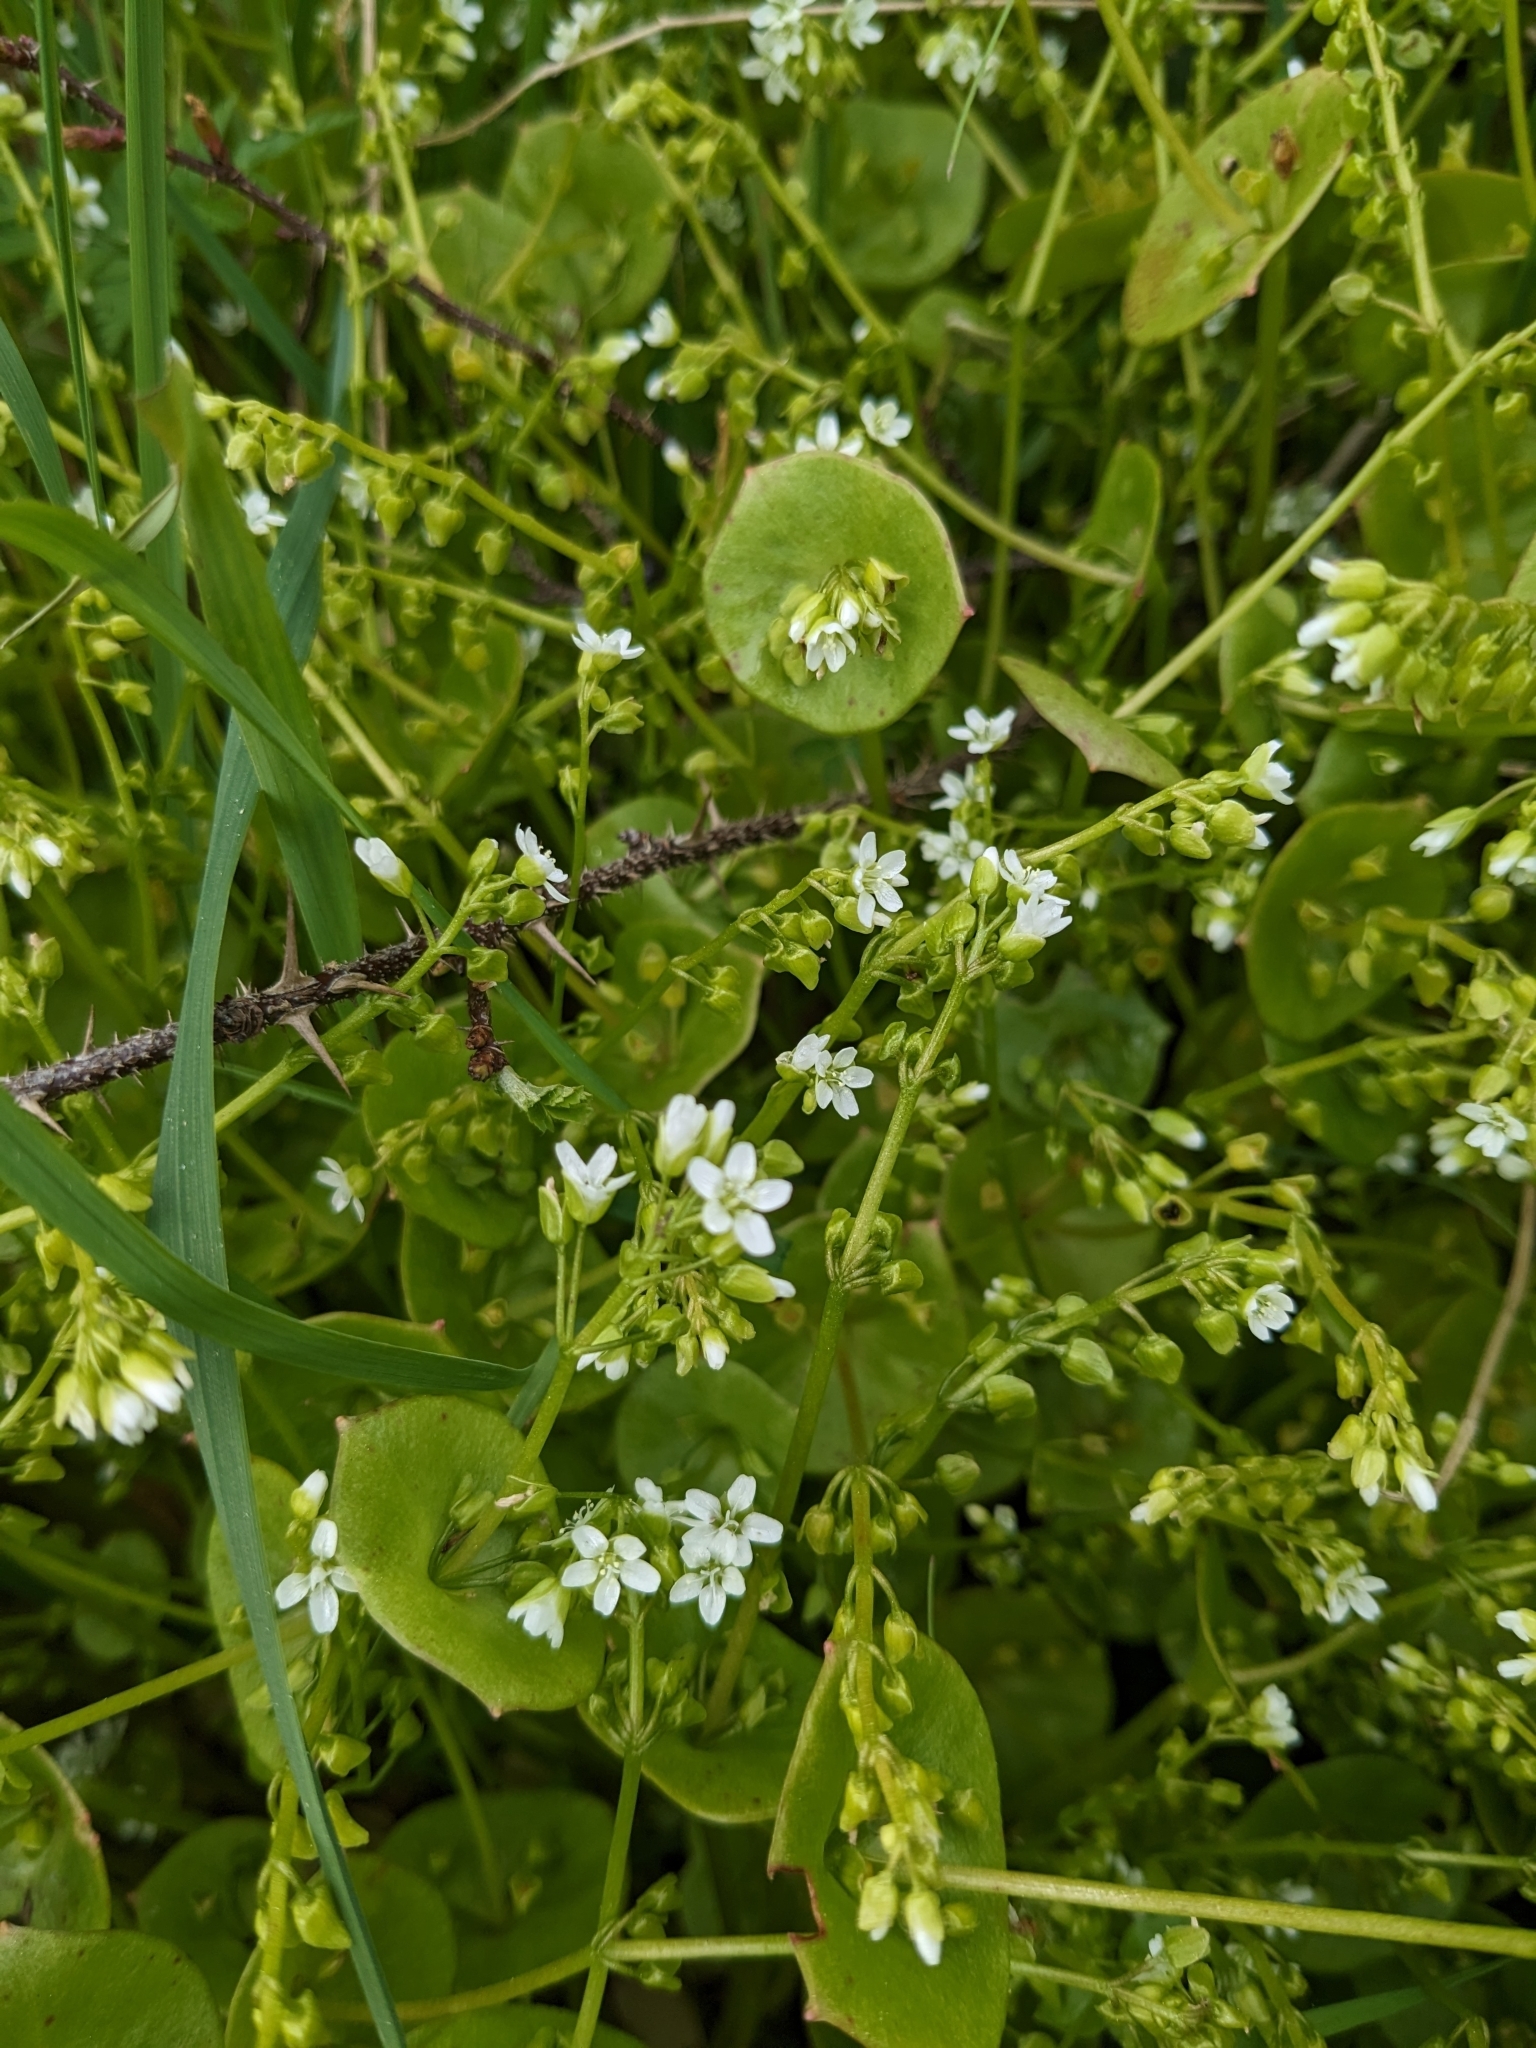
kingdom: Plantae
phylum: Tracheophyta
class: Magnoliopsida
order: Caryophyllales
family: Montiaceae
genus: Claytonia
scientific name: Claytonia perfoliata
